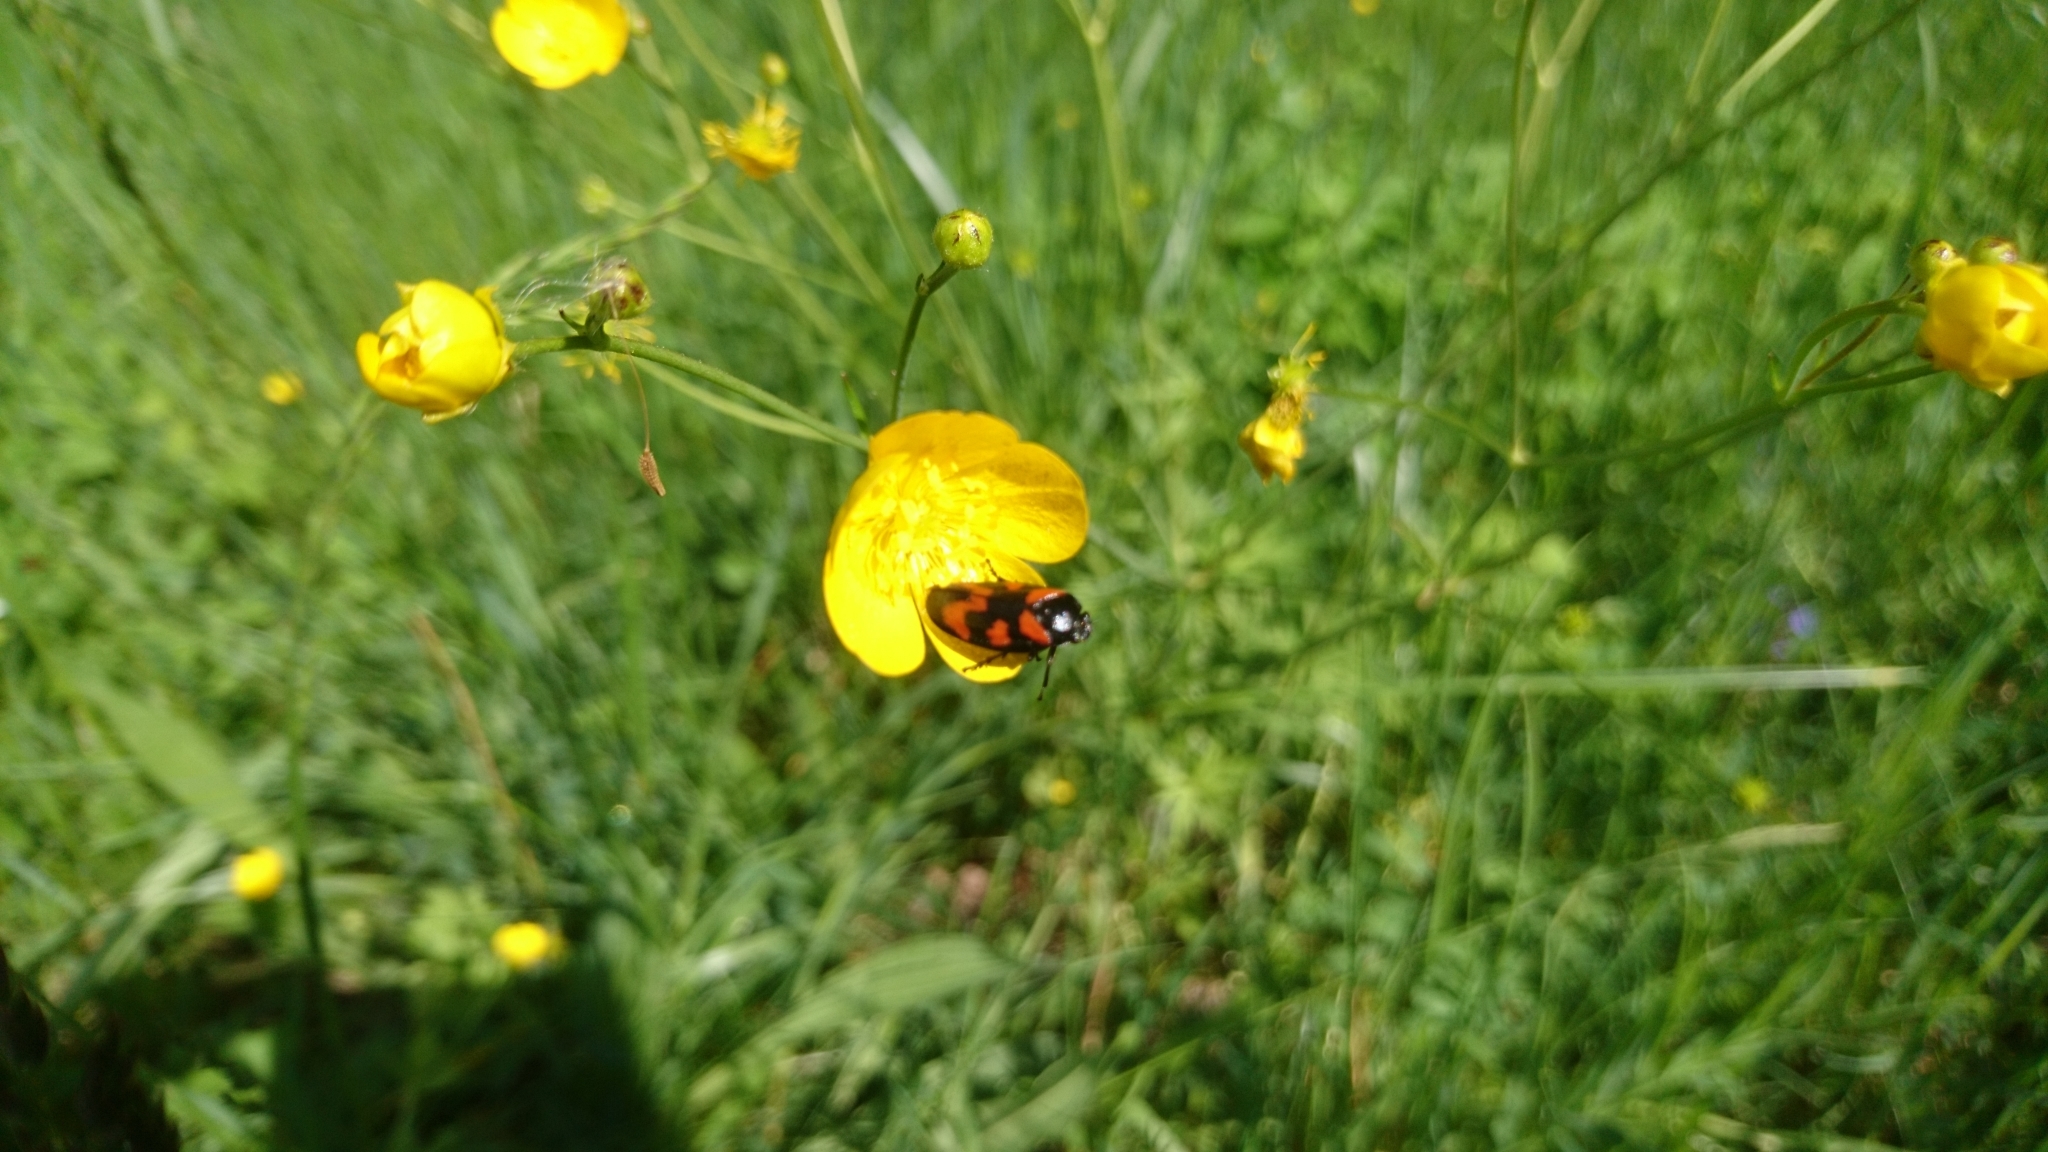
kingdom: Animalia
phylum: Arthropoda
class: Insecta
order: Hemiptera
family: Cercopidae
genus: Cercopis
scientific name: Cercopis vulnerata
